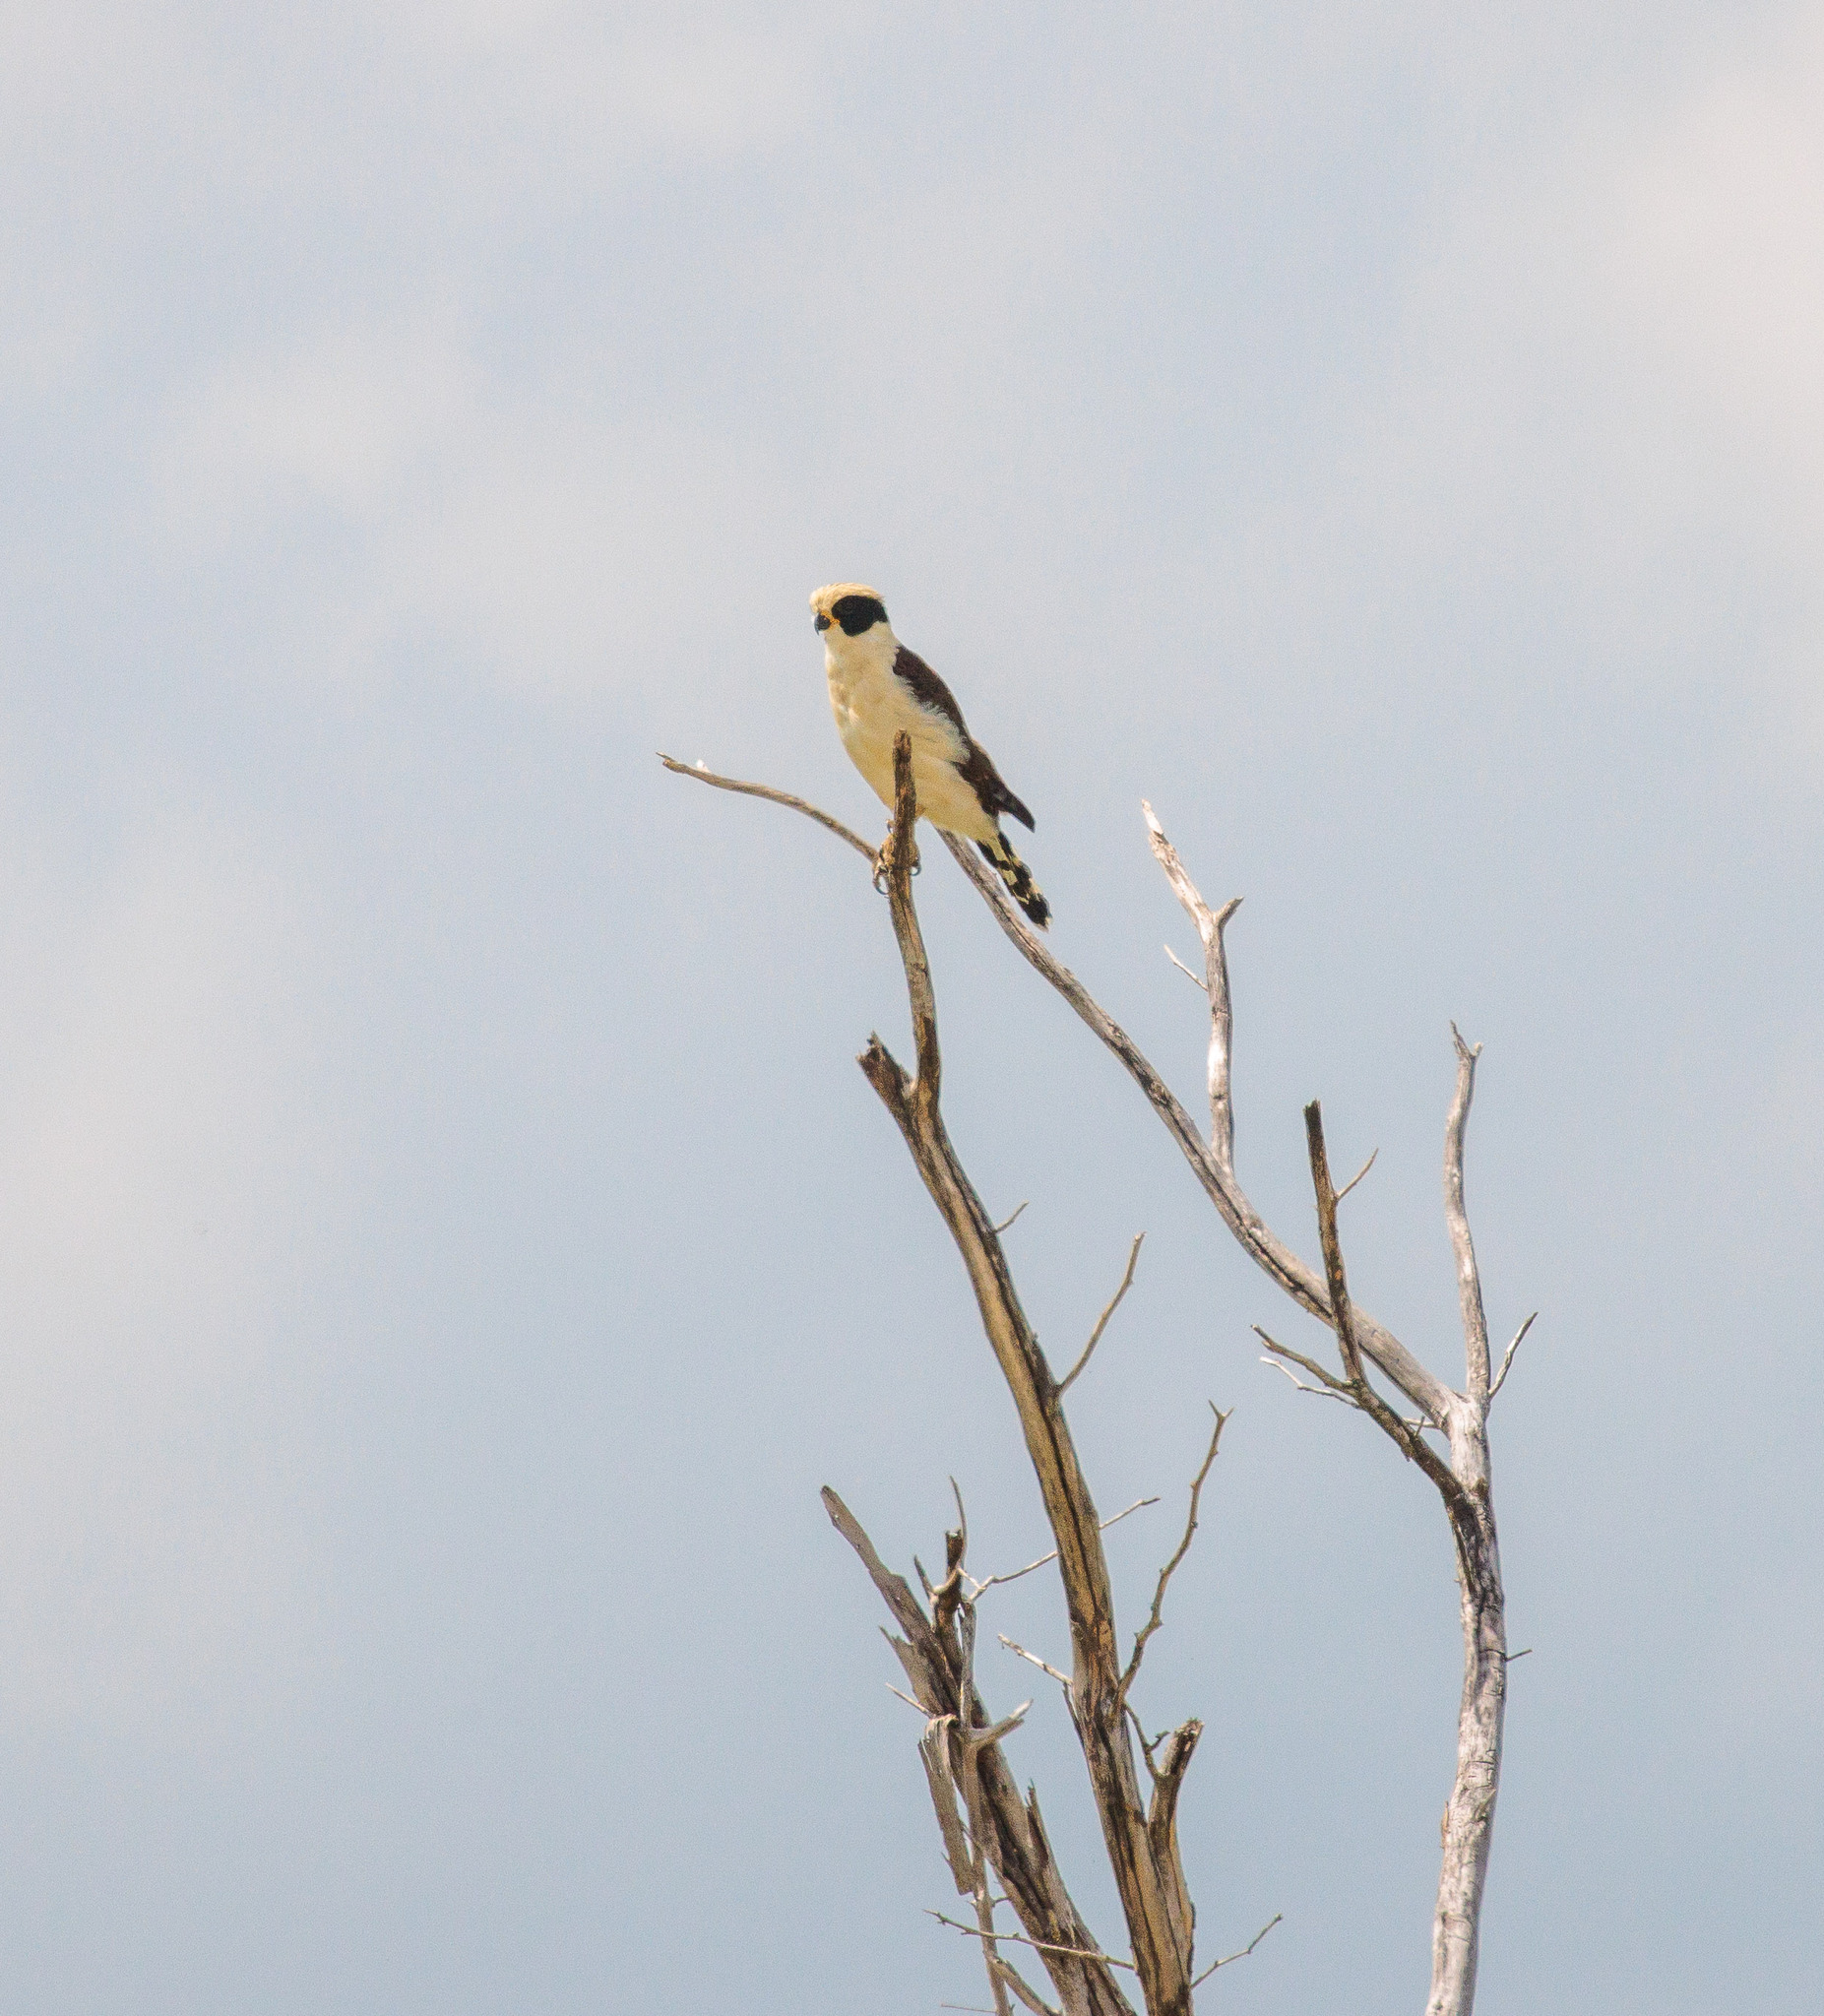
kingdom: Animalia
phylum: Chordata
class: Aves
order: Falconiformes
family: Falconidae
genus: Herpetotheres
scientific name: Herpetotheres cachinnans
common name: Laughing falcon
